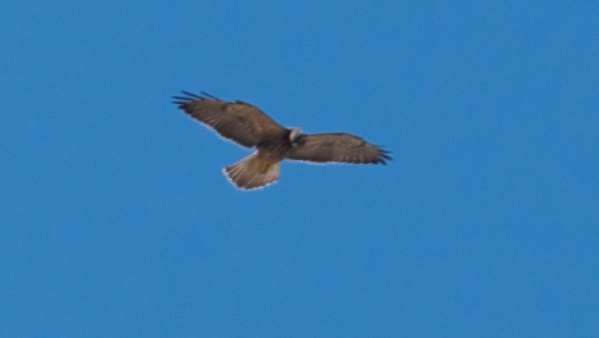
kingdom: Animalia
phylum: Chordata
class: Aves
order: Accipitriformes
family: Accipitridae
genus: Buteo
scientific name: Buteo swainsoni
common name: Swainson's hawk
